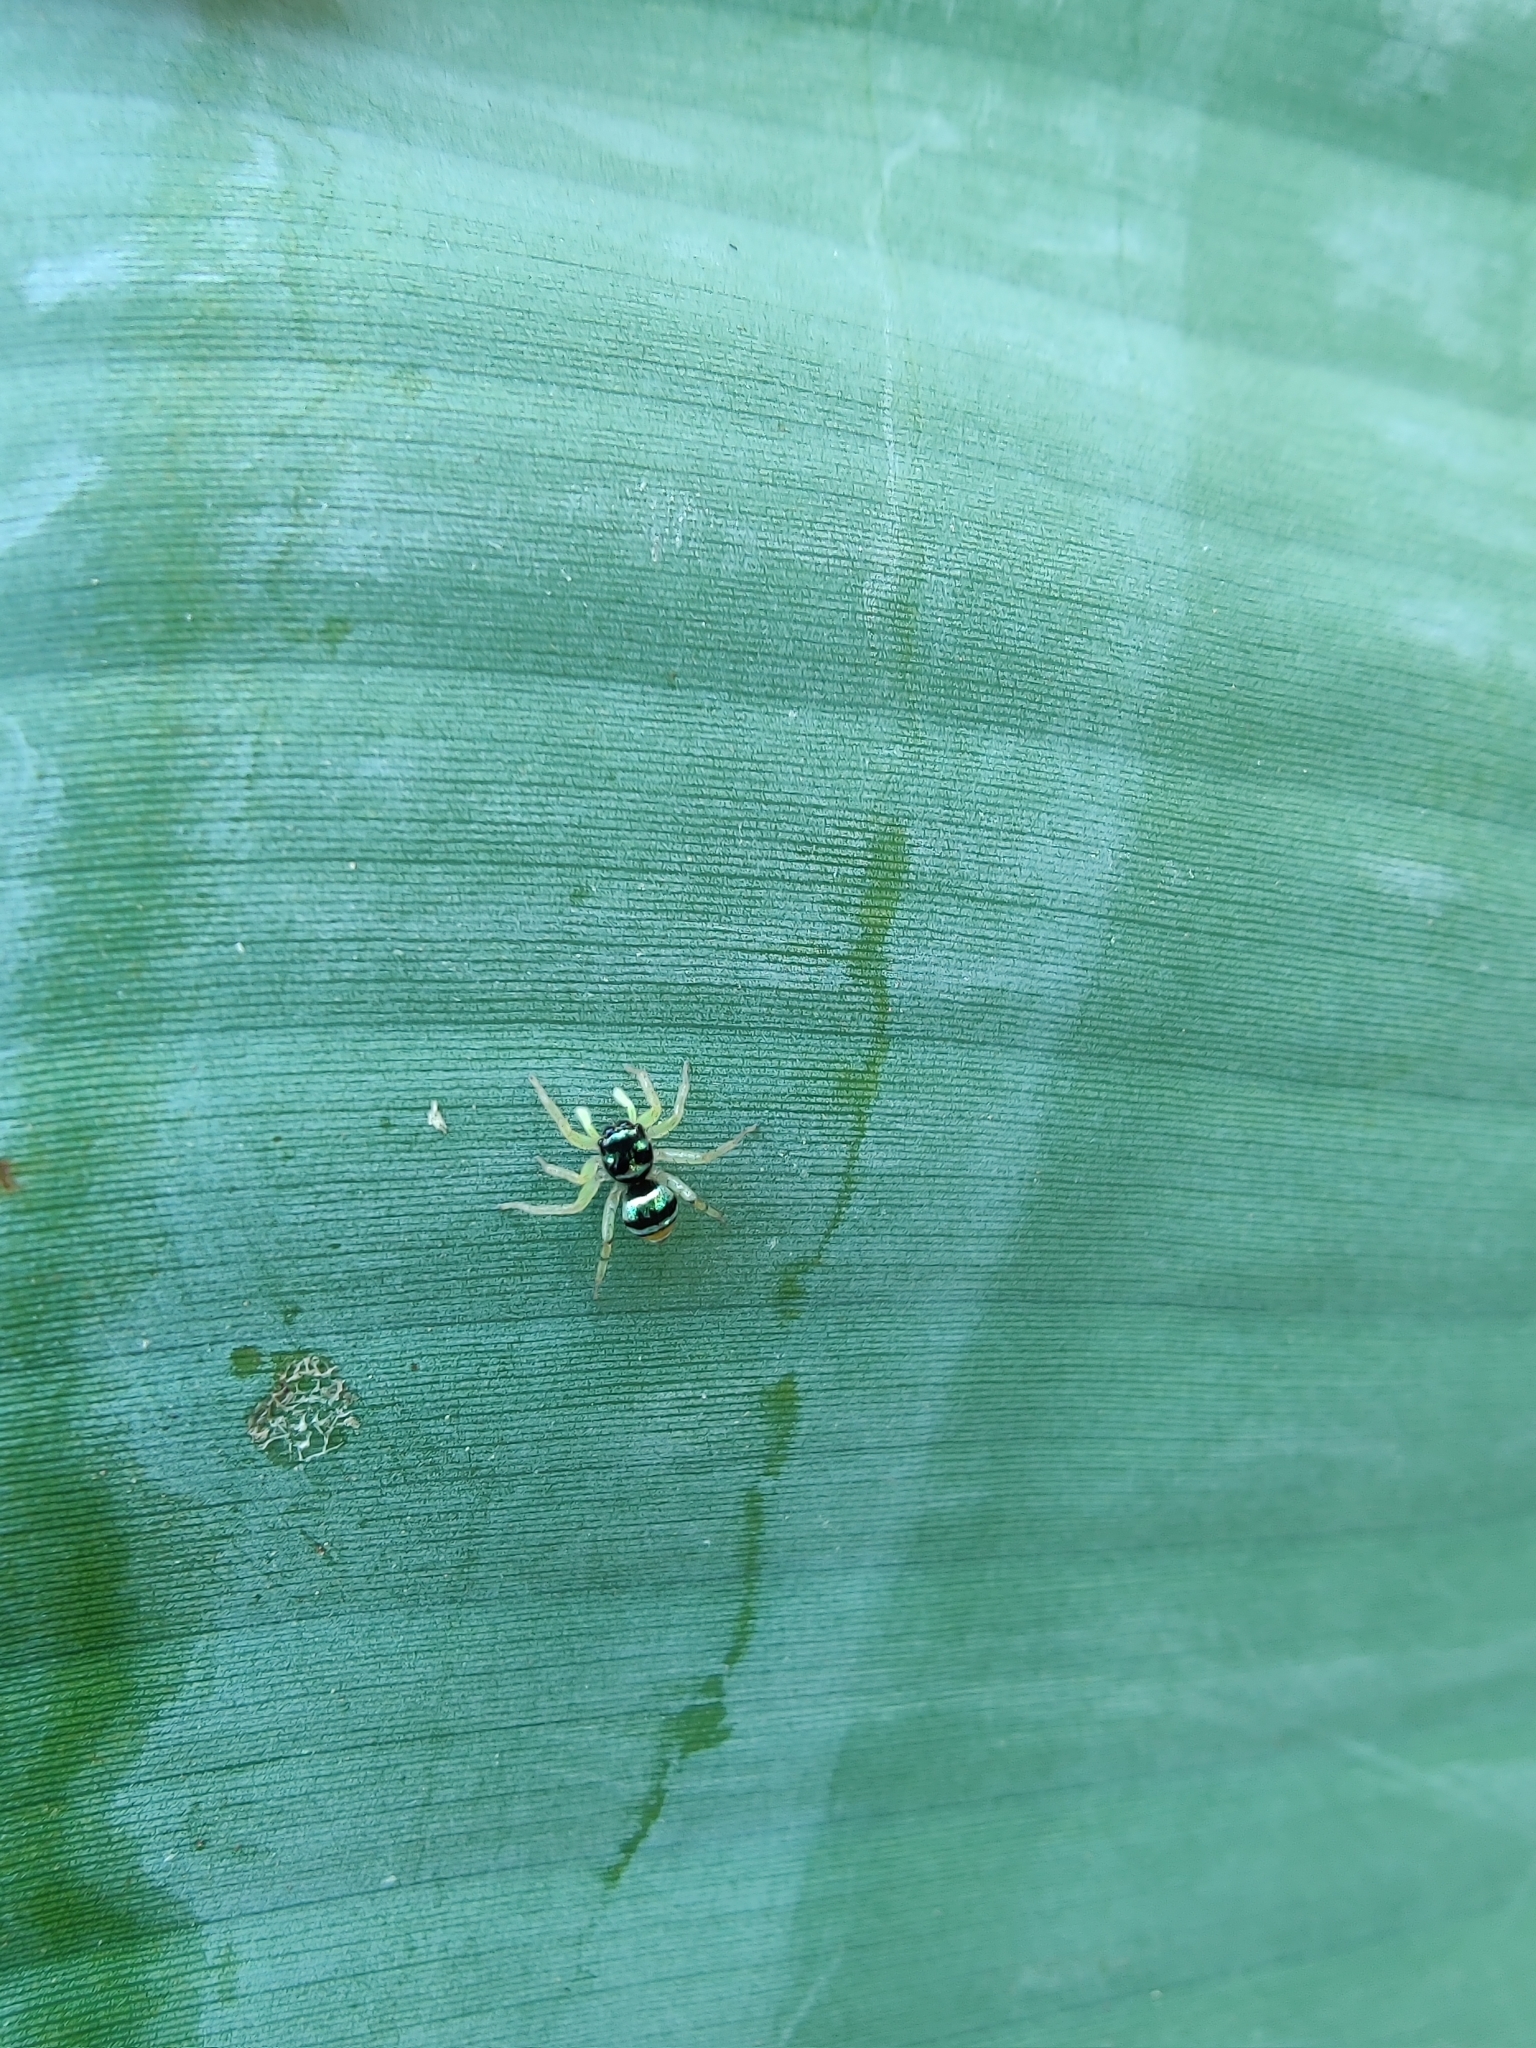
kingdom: Animalia
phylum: Arthropoda
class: Arachnida
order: Araneae
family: Salticidae
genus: Phintella
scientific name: Phintella vittata
